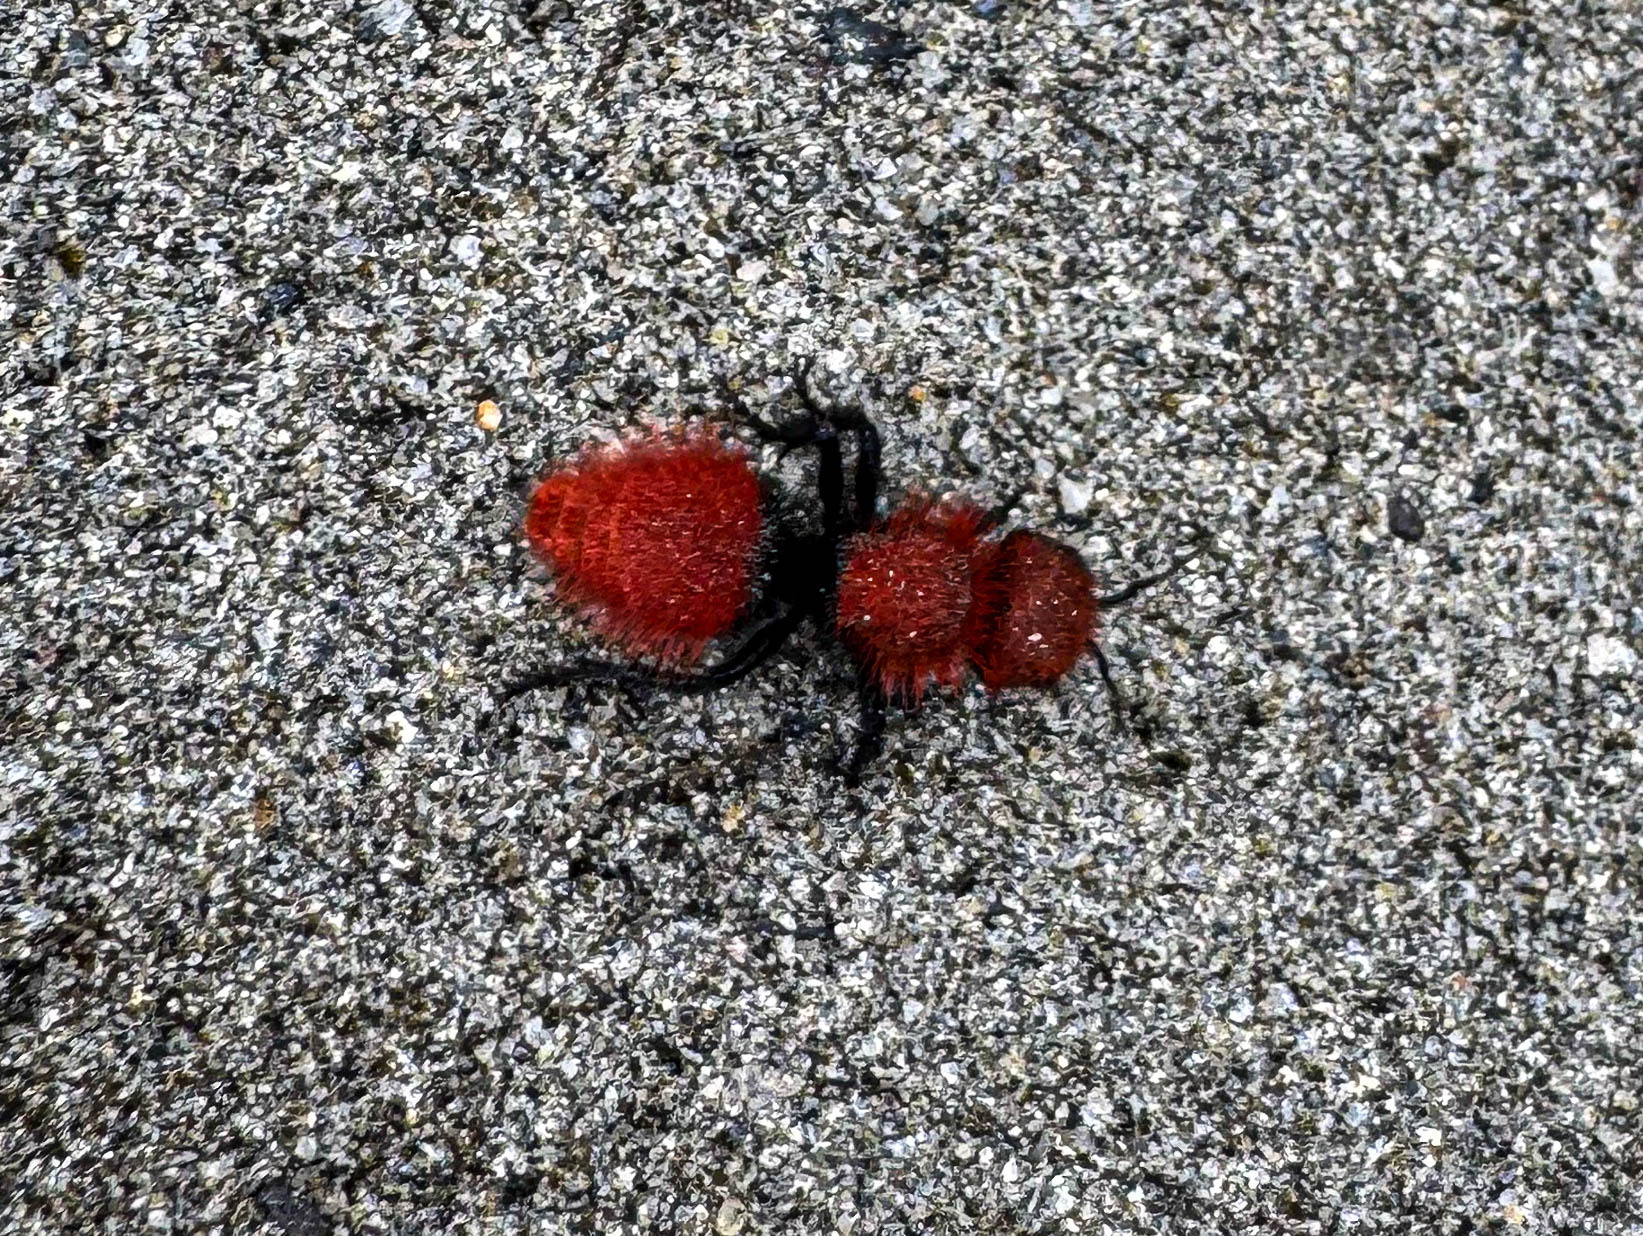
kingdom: Animalia
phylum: Arthropoda
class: Insecta
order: Hymenoptera
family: Mutillidae
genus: Dasymutilla
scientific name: Dasymutilla
